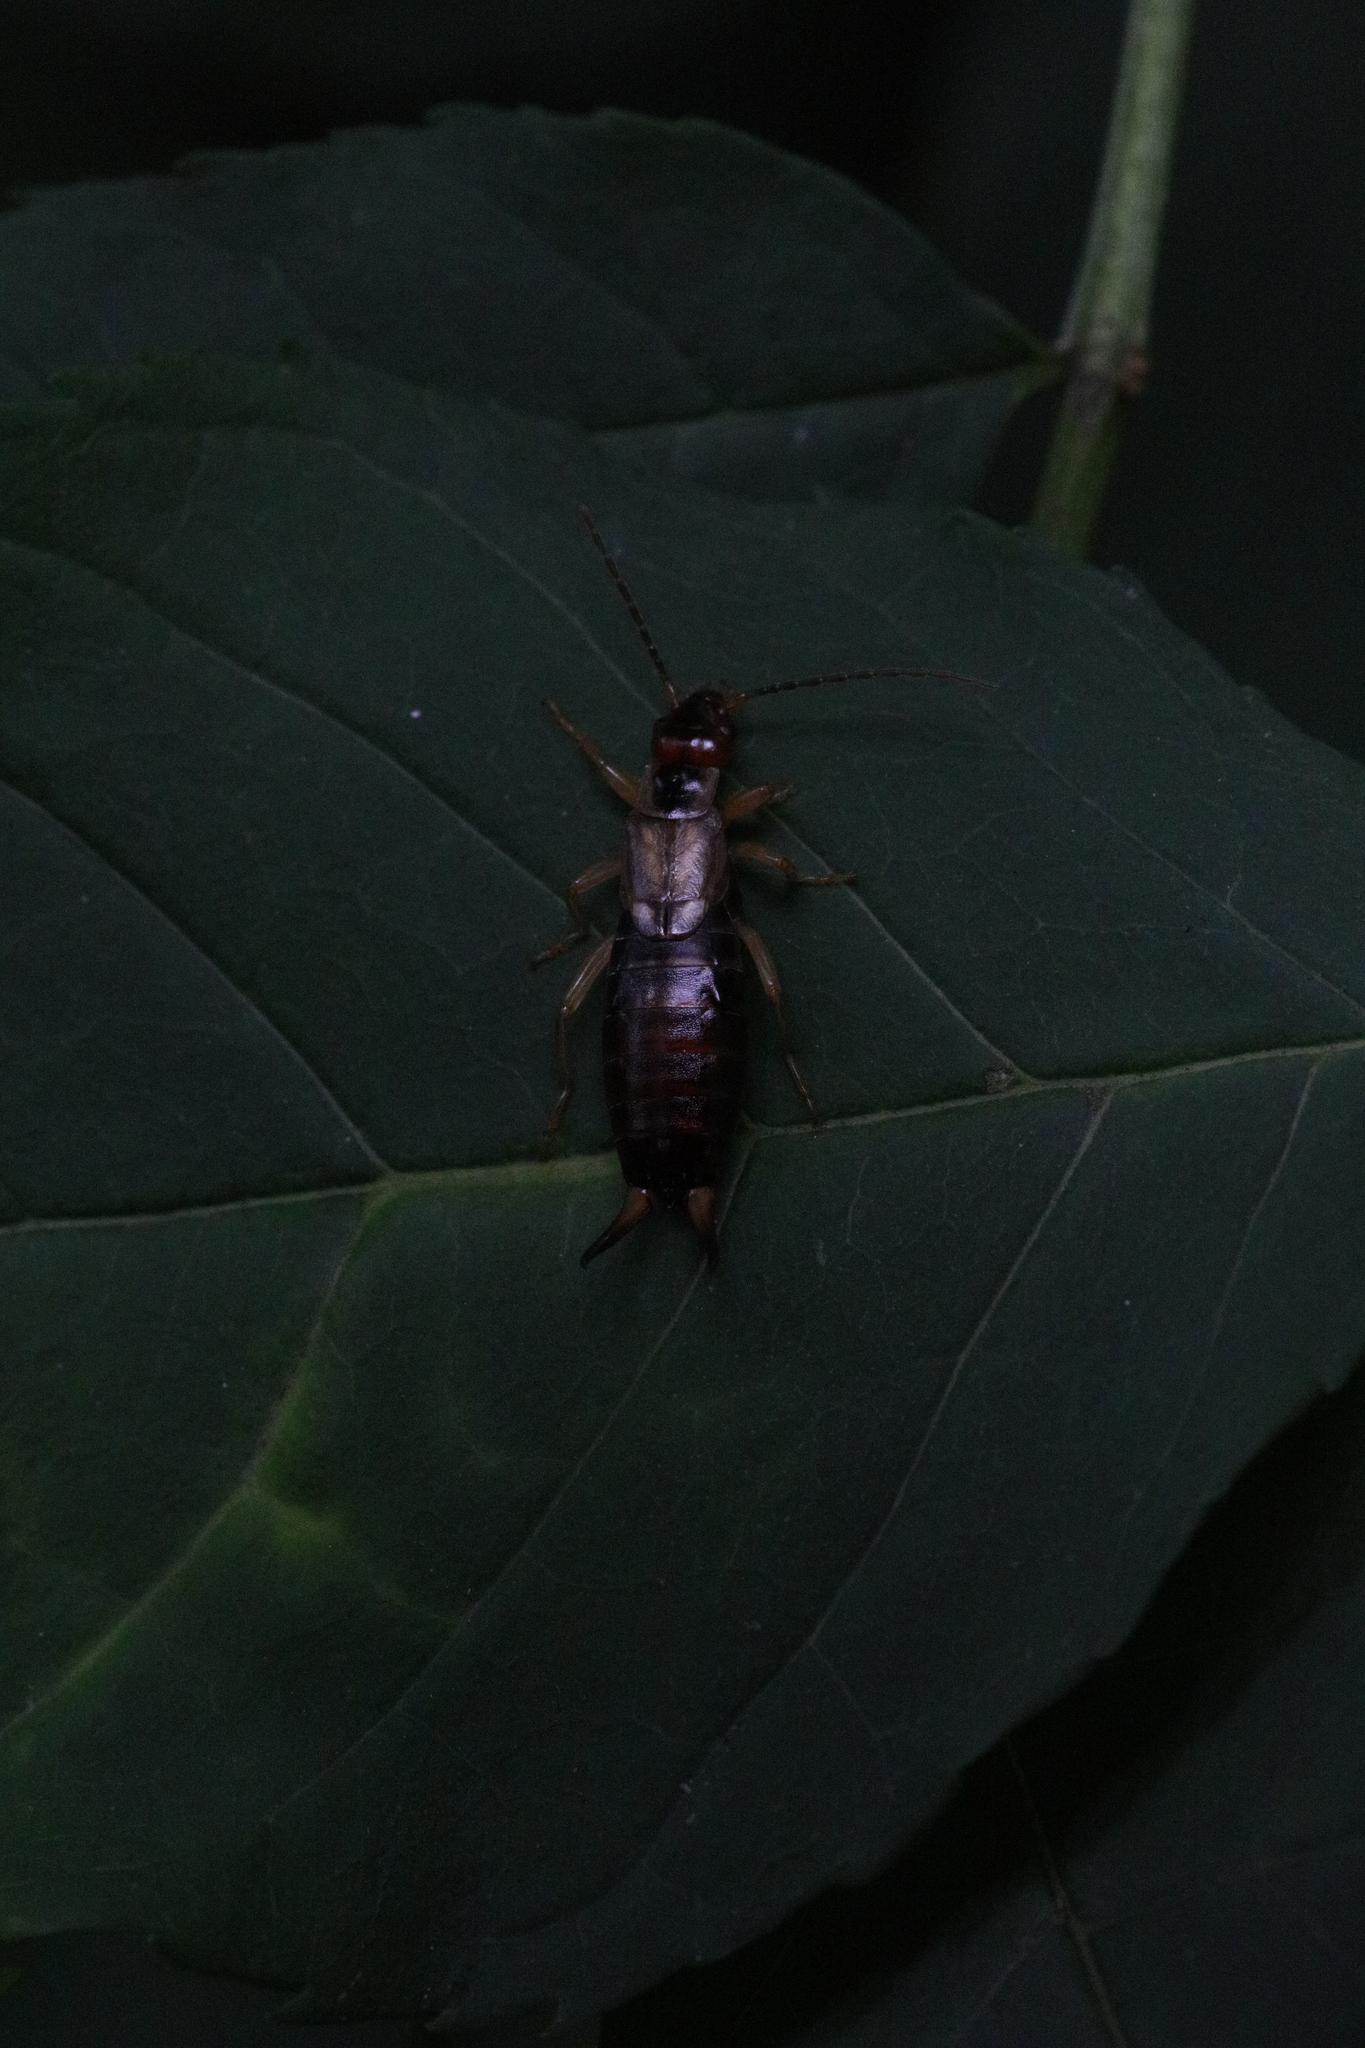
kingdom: Animalia
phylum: Arthropoda
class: Insecta
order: Dermaptera
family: Forficulidae
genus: Forficula
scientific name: Forficula
